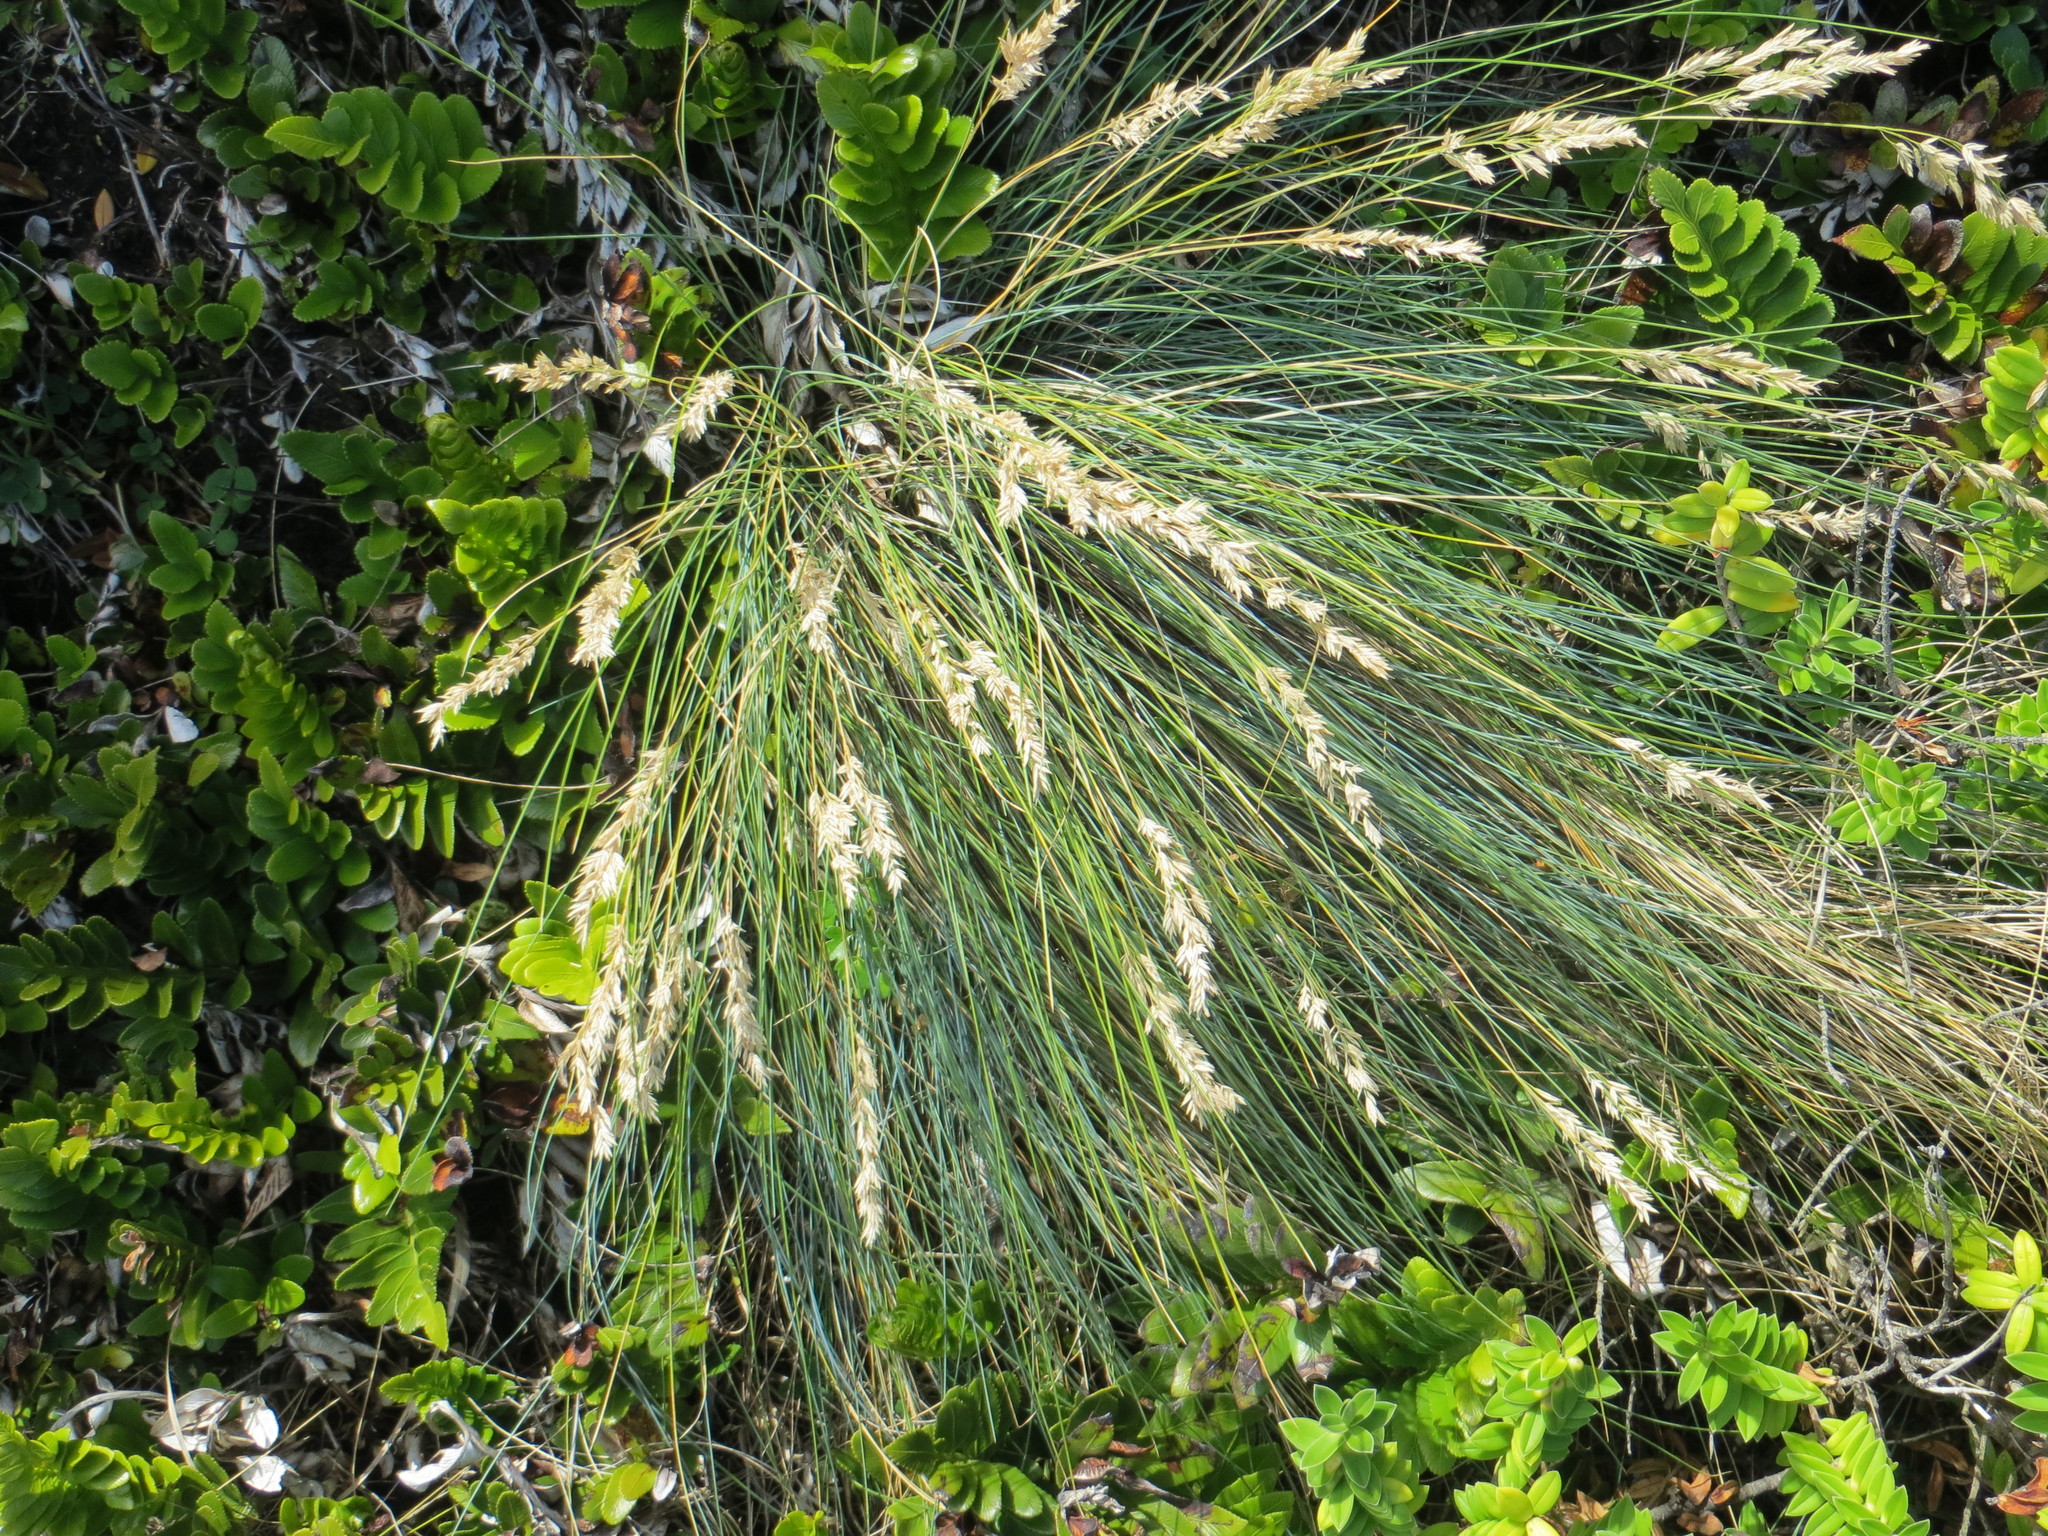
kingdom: Plantae
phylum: Tracheophyta
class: Liliopsida
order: Poales
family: Poaceae
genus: Poa
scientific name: Poa astonii
